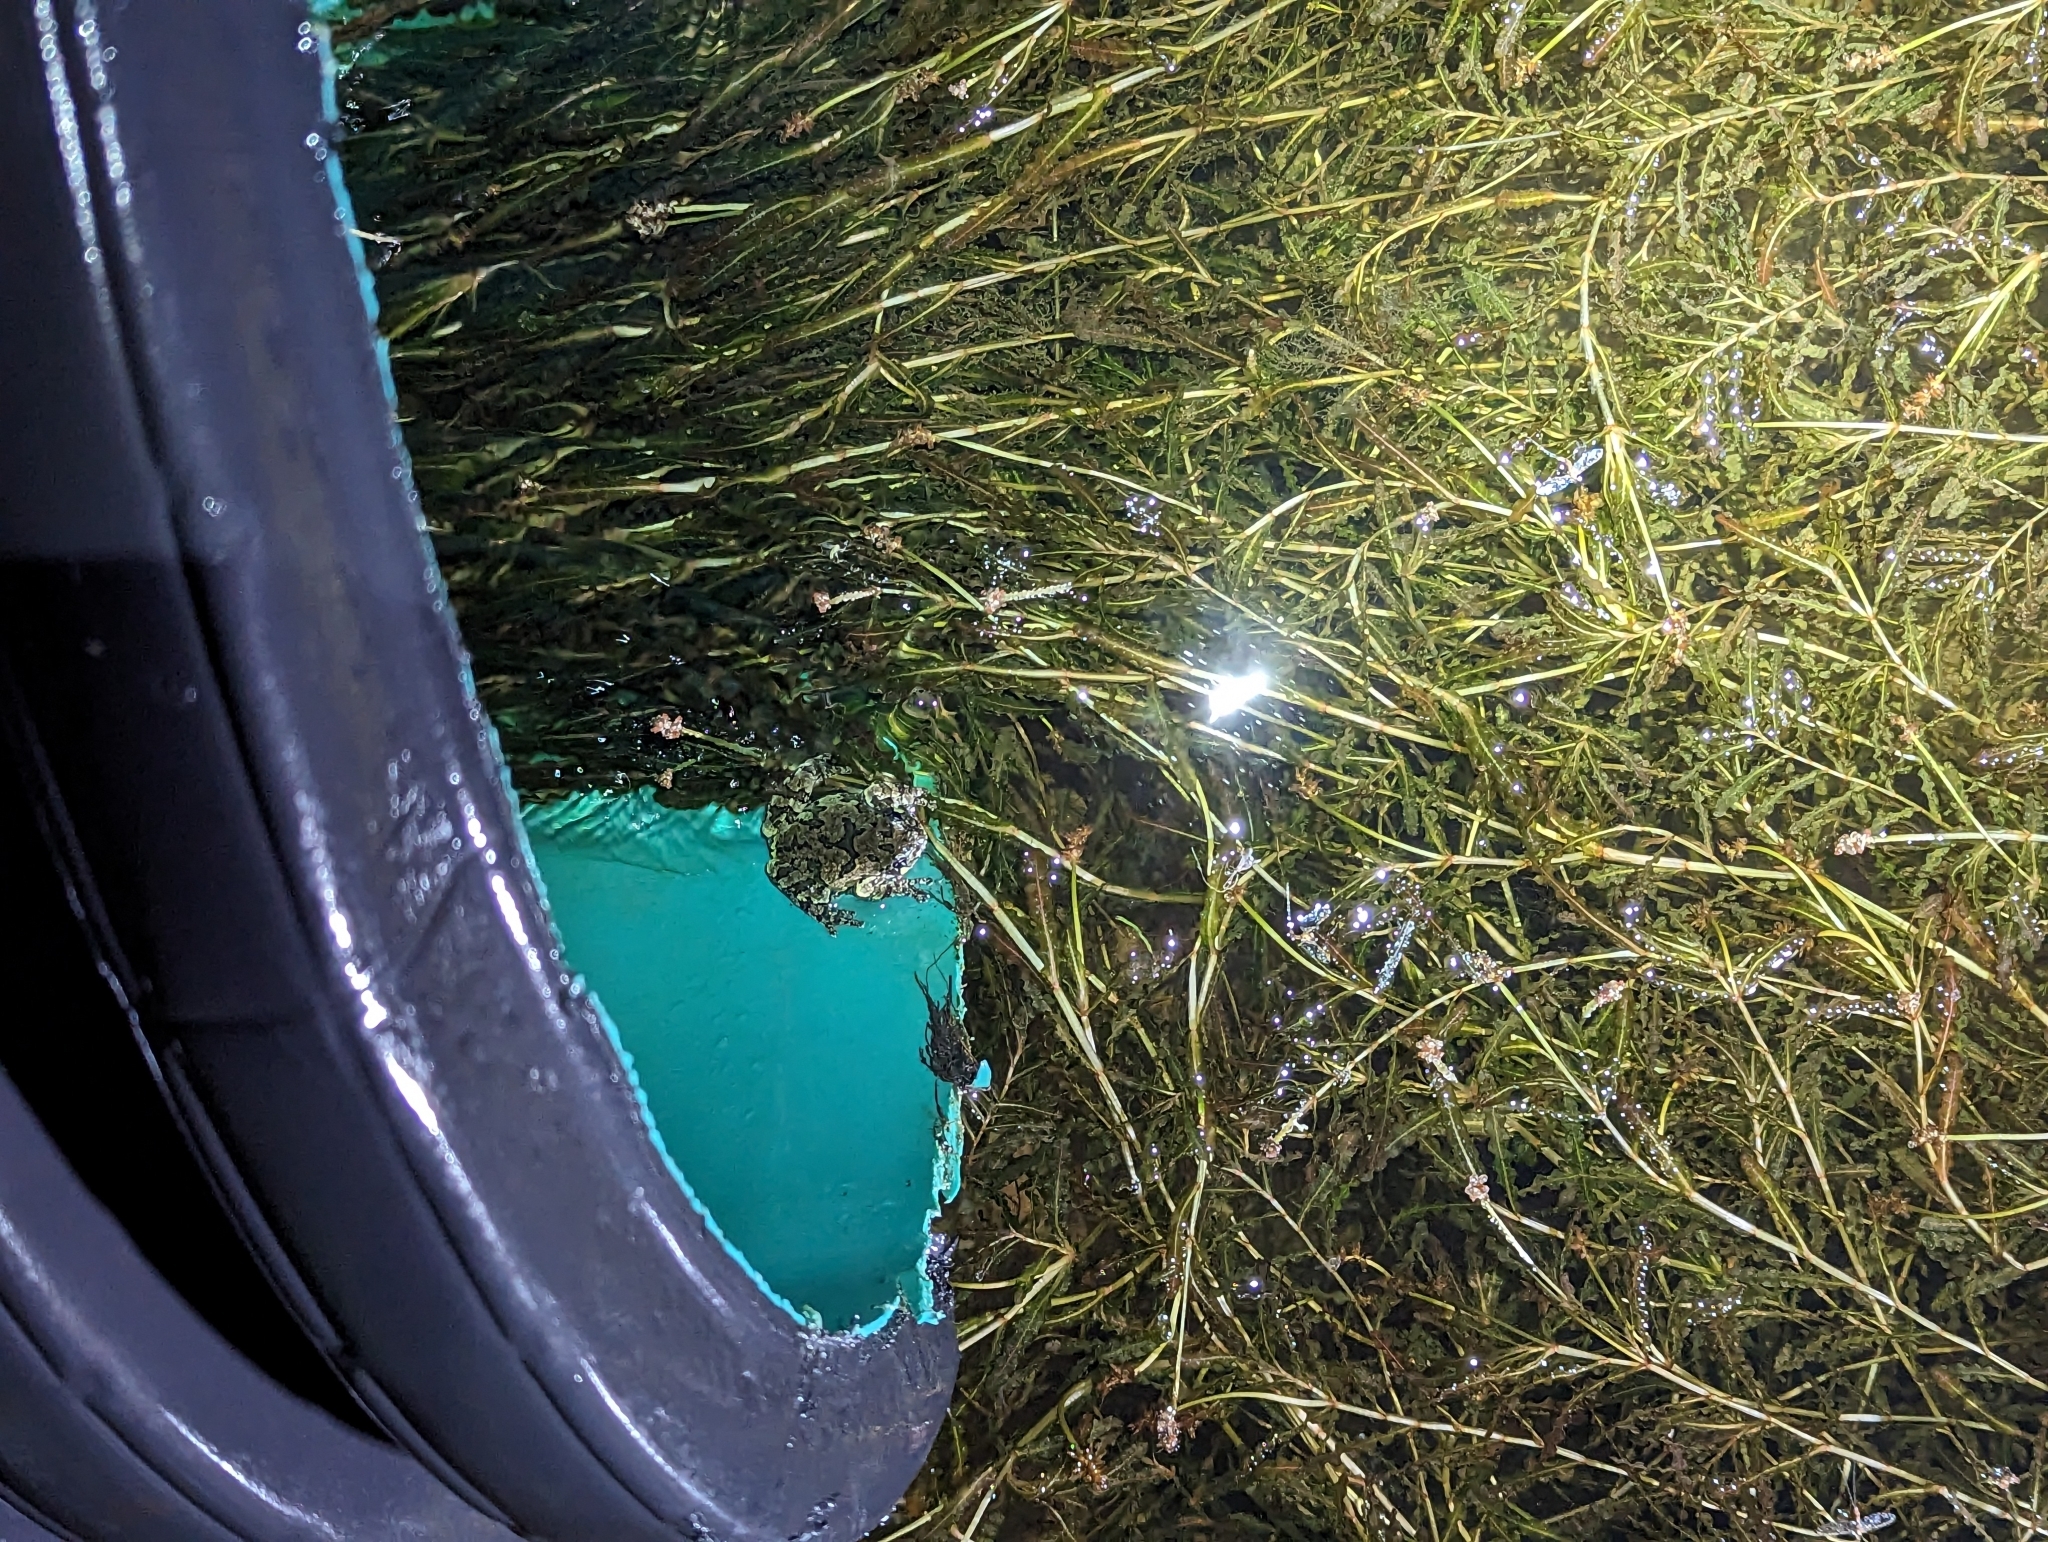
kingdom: Animalia
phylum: Chordata
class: Amphibia
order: Anura
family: Hylidae
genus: Dryophytes
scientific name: Dryophytes versicolor
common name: Gray treefrog
